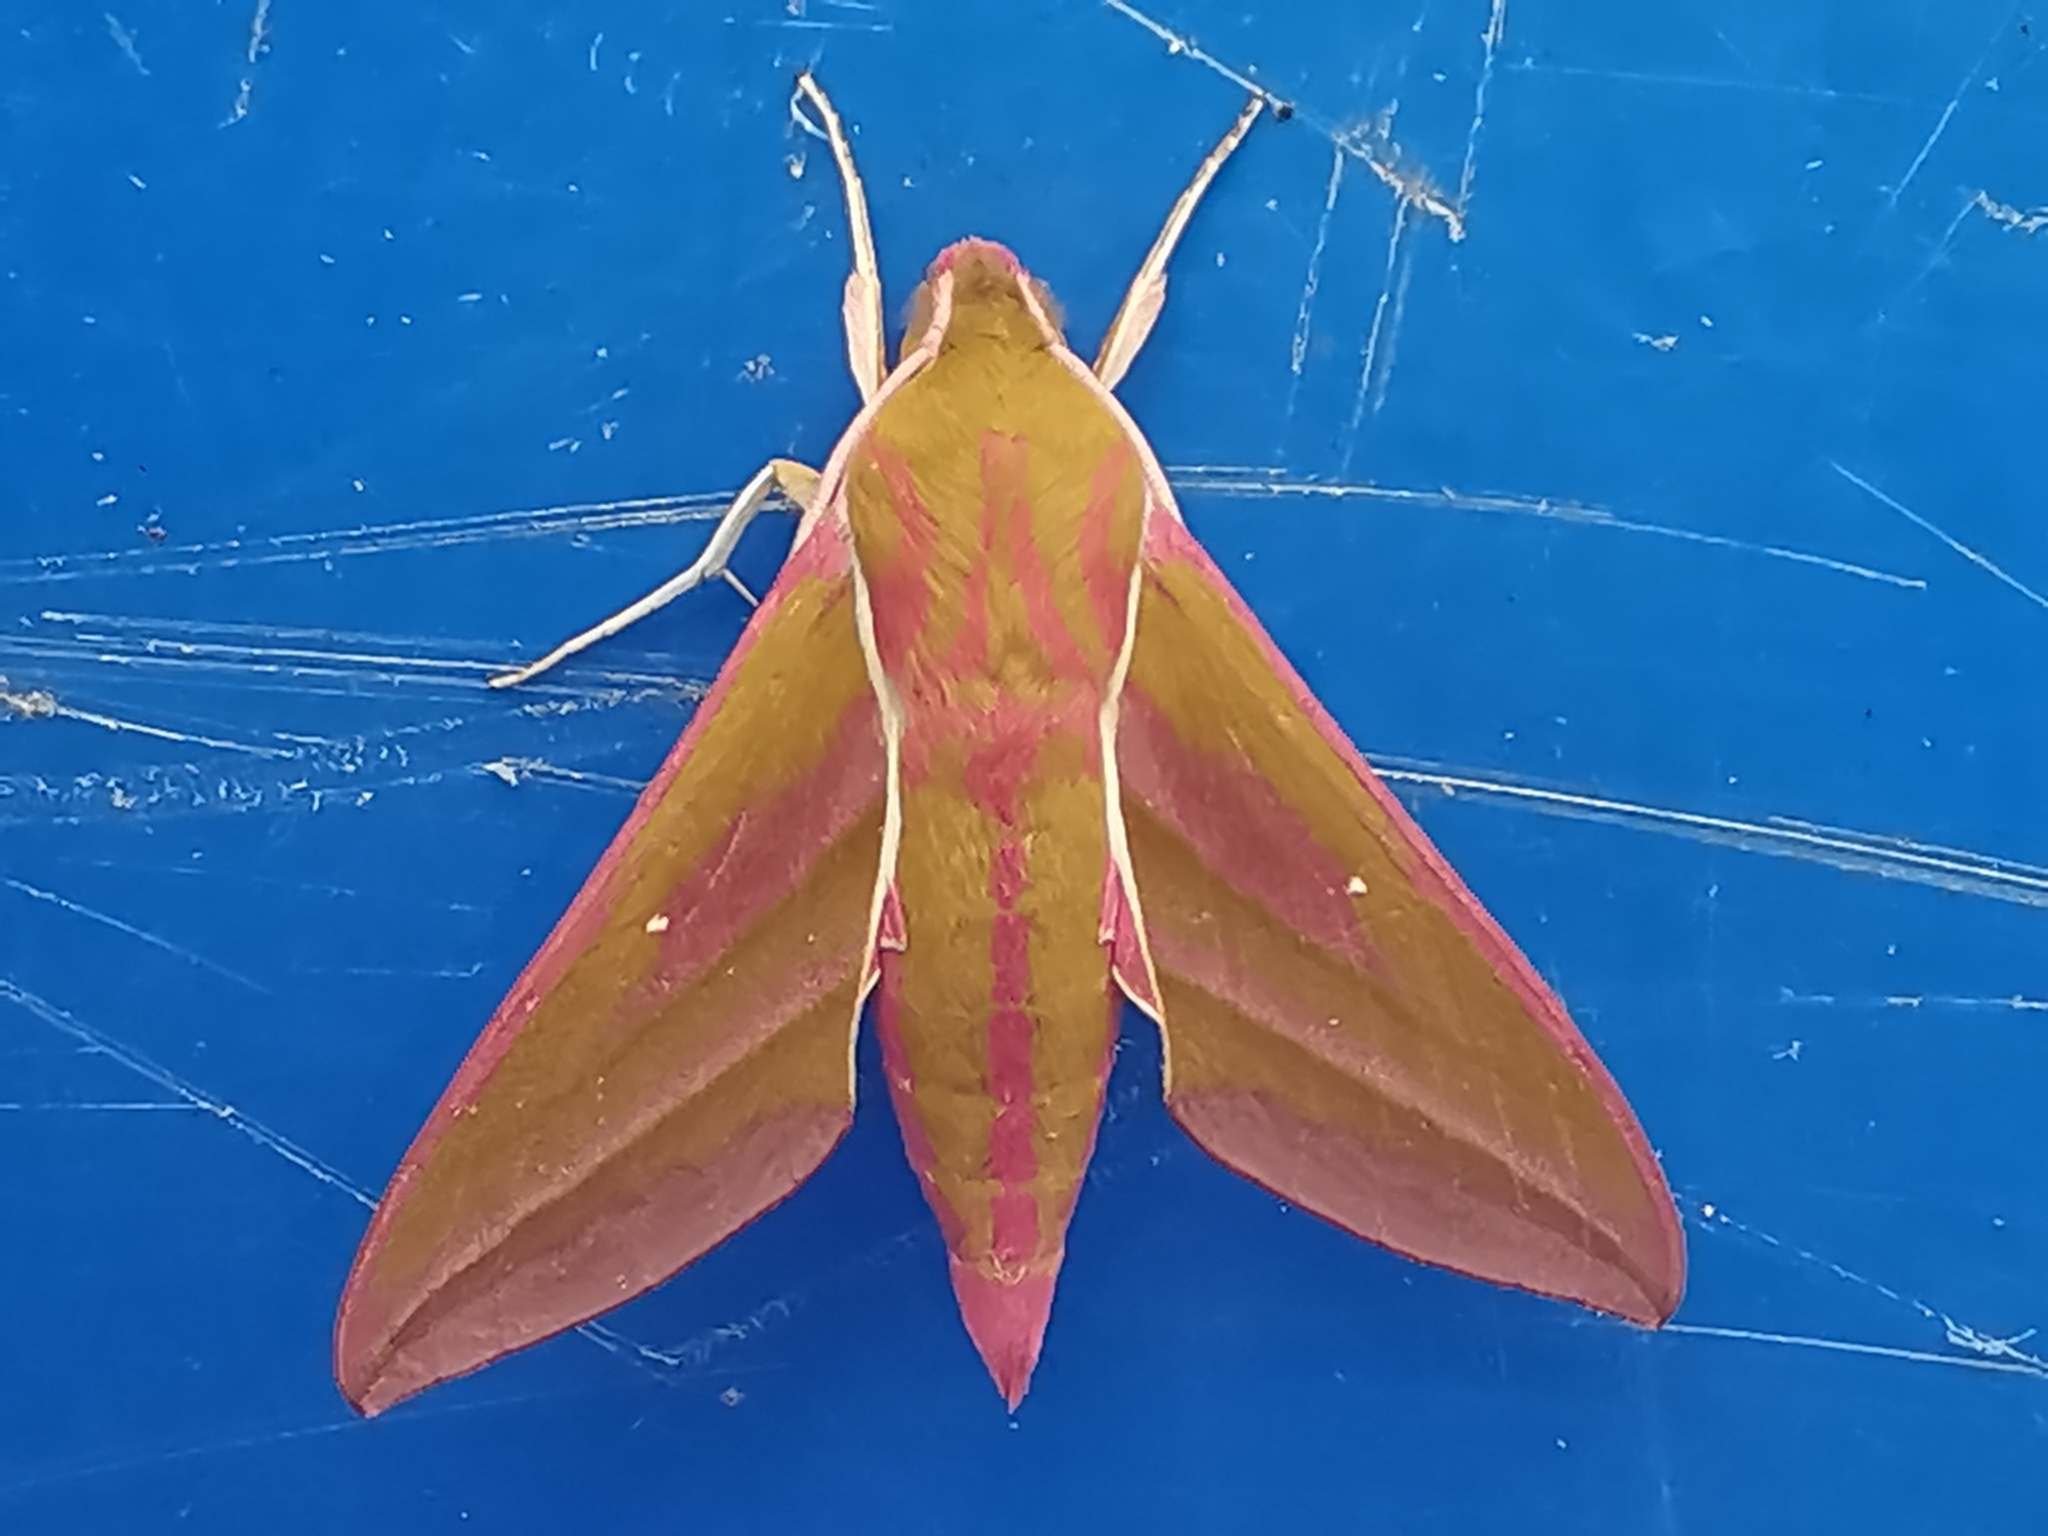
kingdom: Animalia
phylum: Arthropoda
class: Insecta
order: Lepidoptera
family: Sphingidae
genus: Deilephila
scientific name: Deilephila elpenor
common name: Elephant hawk-moth
